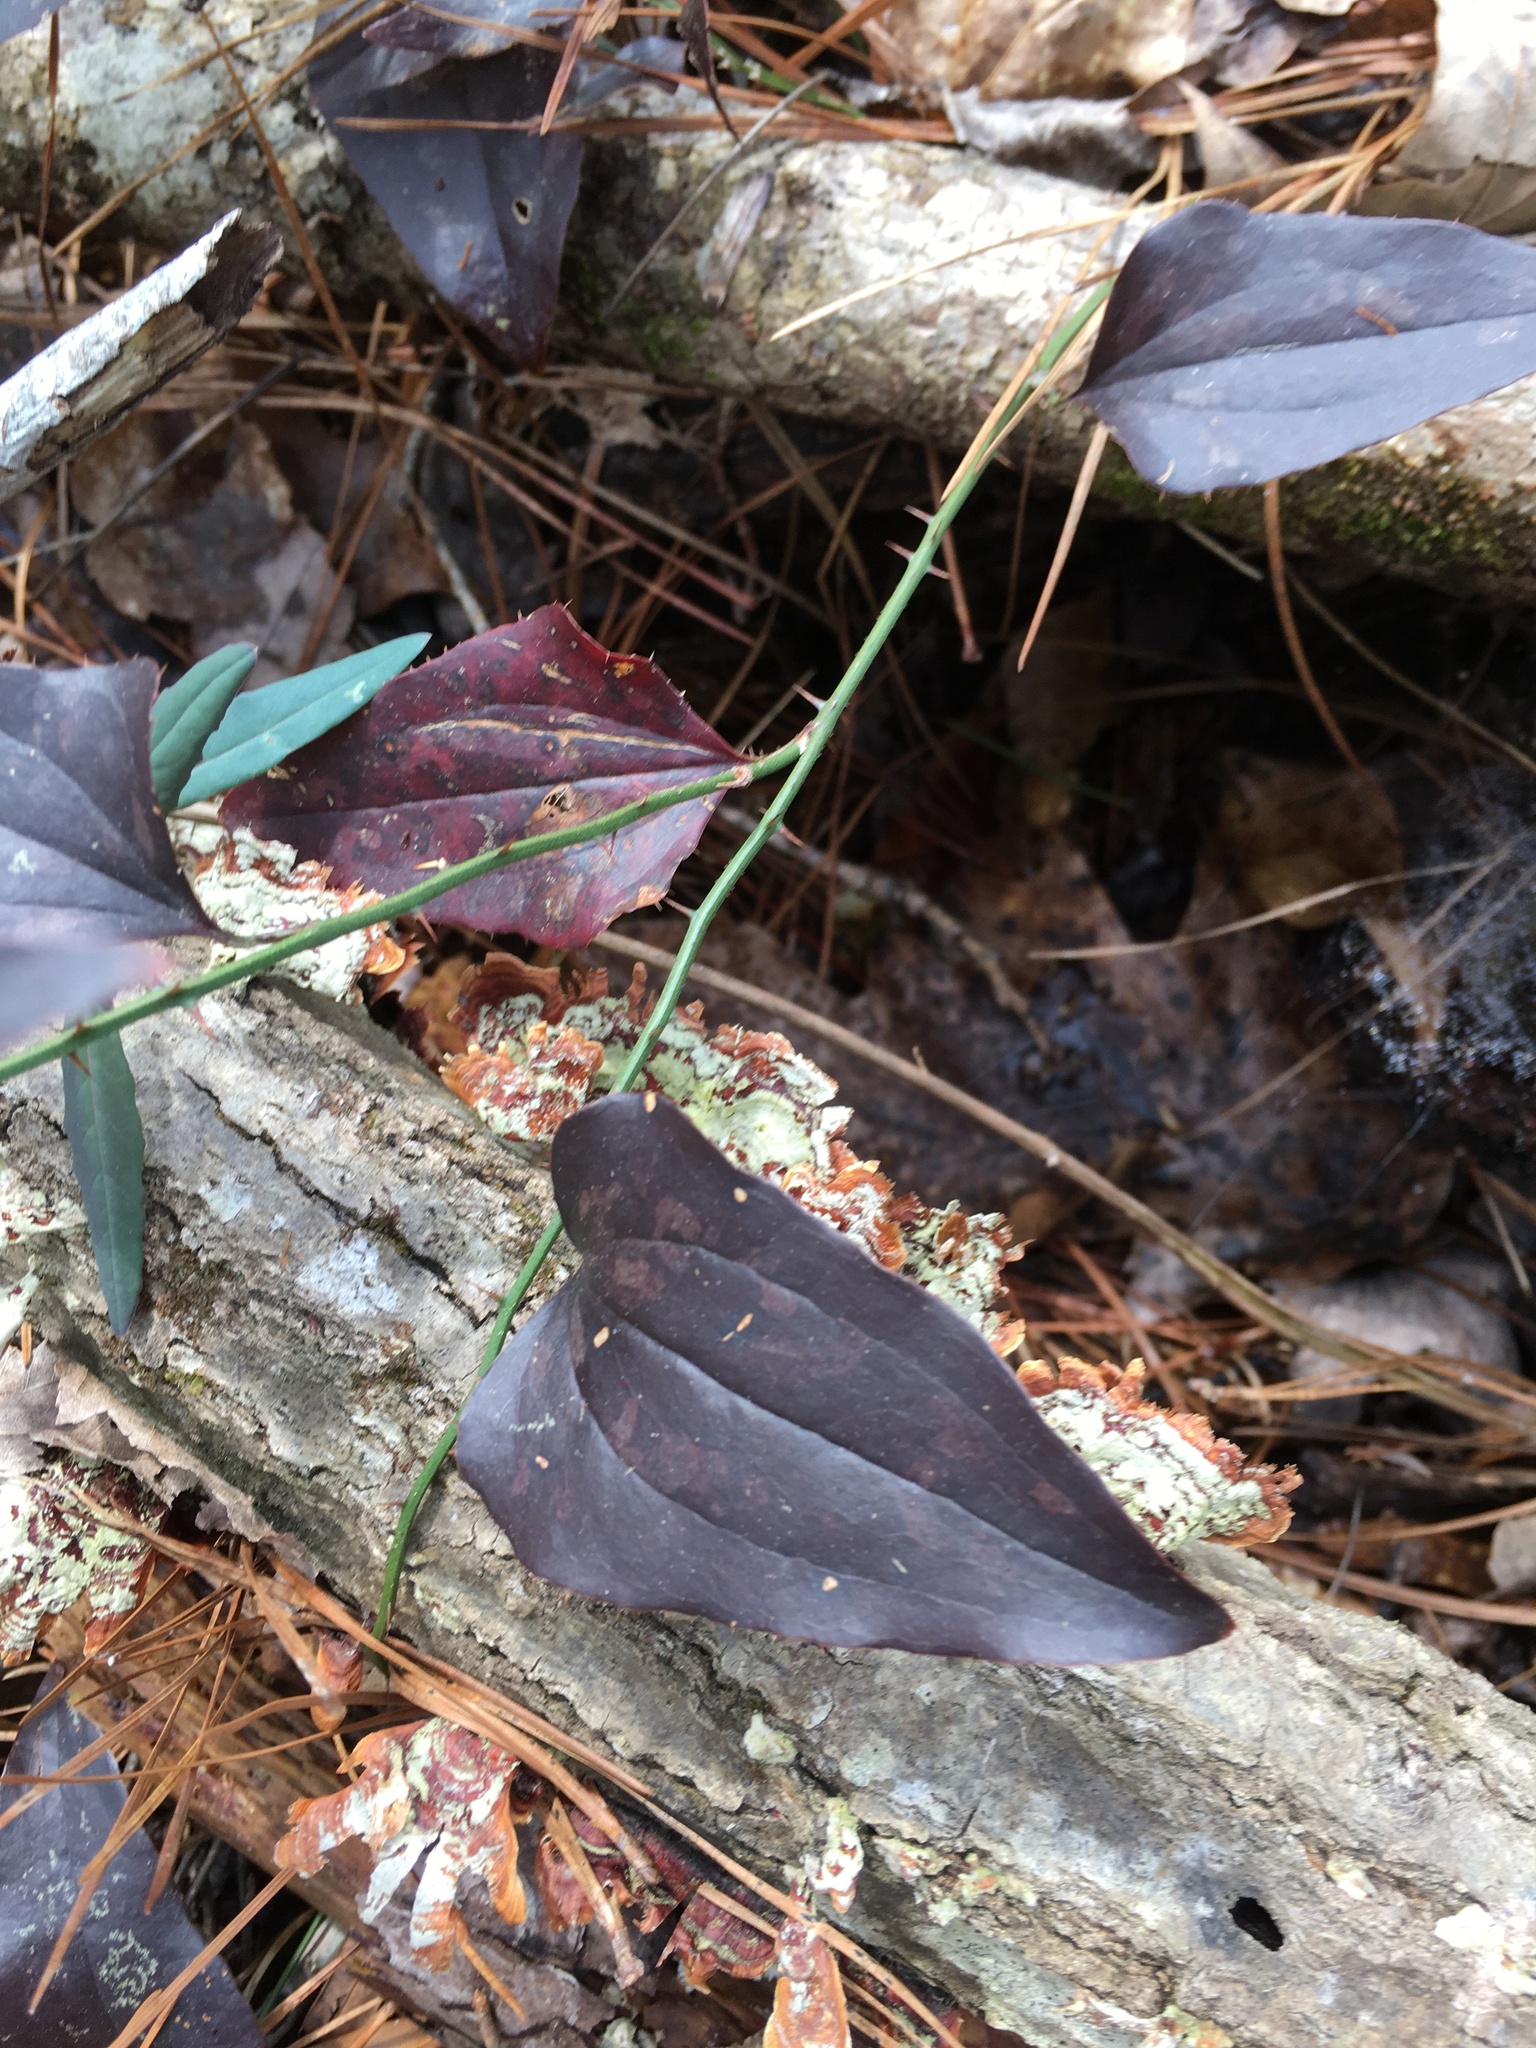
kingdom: Plantae
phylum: Tracheophyta
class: Liliopsida
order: Liliales
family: Smilacaceae
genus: Smilax
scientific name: Smilax bona-nox
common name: Catbrier
